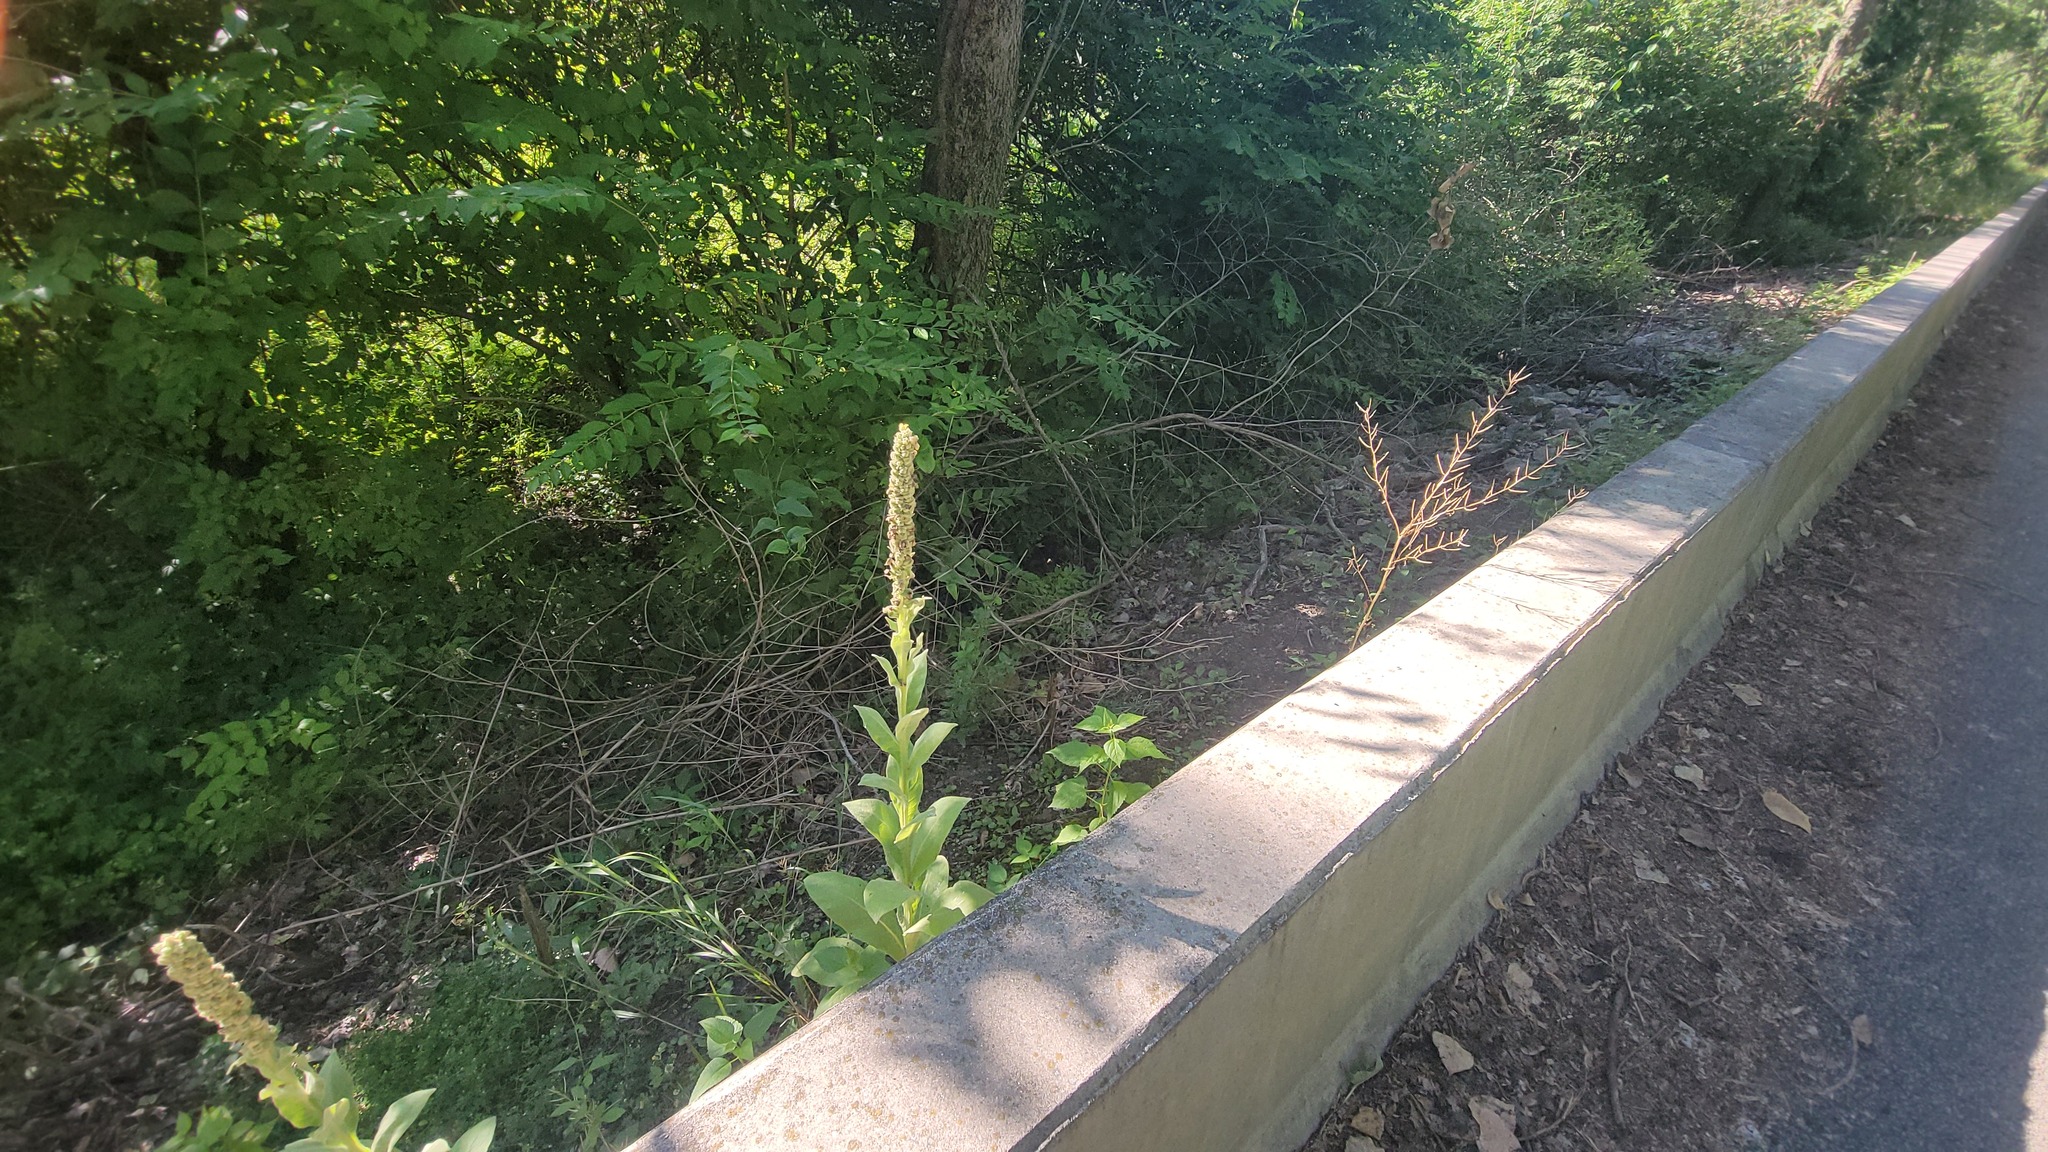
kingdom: Plantae
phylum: Tracheophyta
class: Magnoliopsida
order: Lamiales
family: Scrophulariaceae
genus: Verbascum
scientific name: Verbascum thapsus
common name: Common mullein
